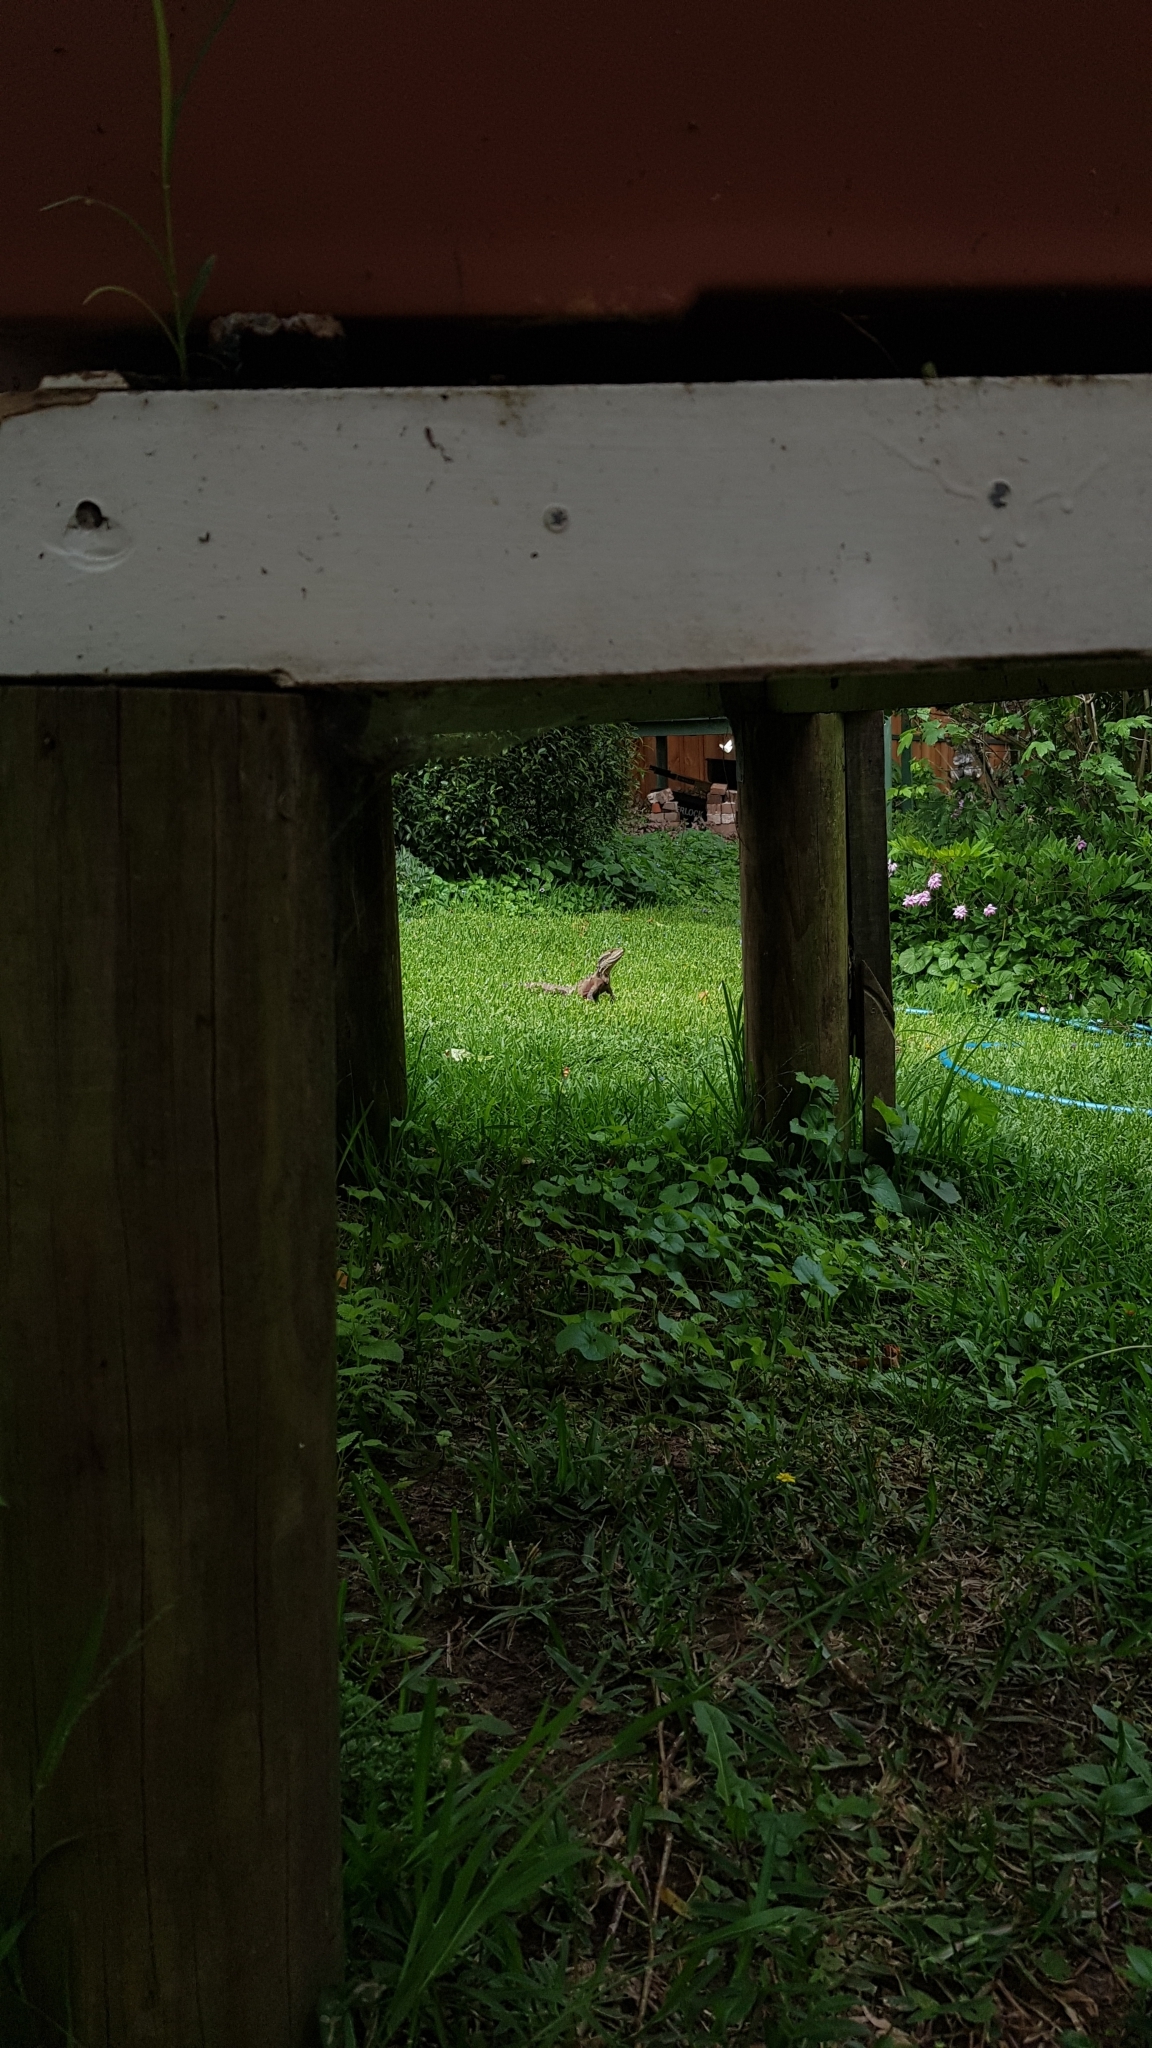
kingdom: Animalia
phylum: Chordata
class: Squamata
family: Agamidae
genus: Intellagama
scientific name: Intellagama lesueurii
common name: Eastern water dragon
